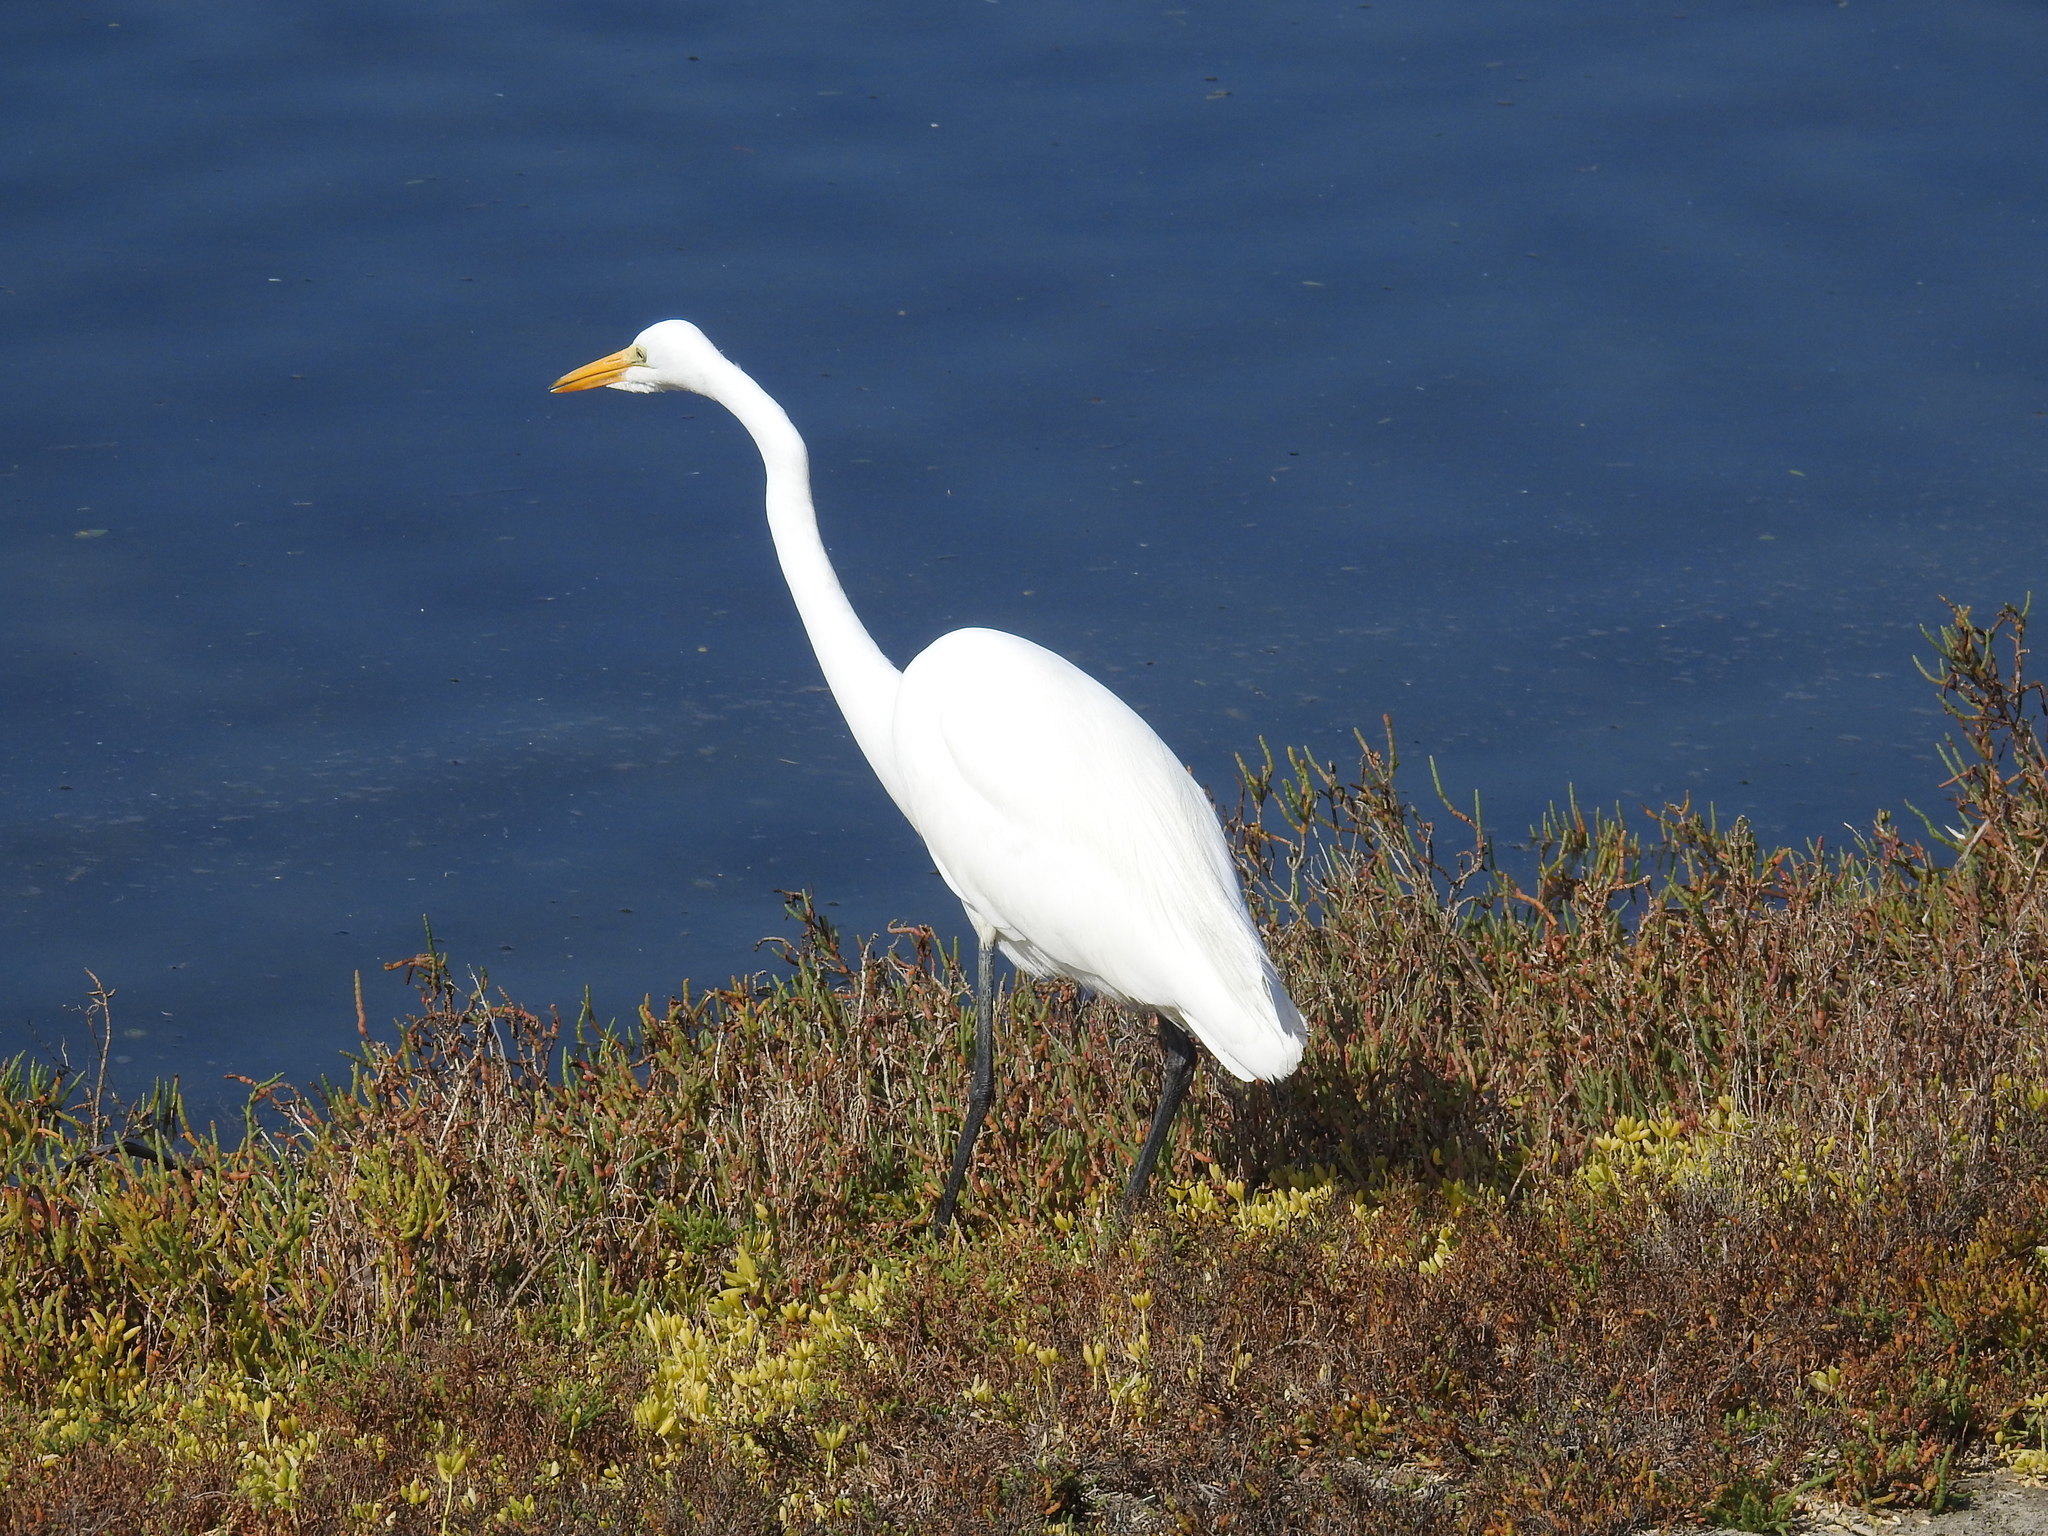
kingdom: Animalia
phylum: Chordata
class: Aves
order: Pelecaniformes
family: Ardeidae
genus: Ardea
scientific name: Ardea alba
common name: Great egret
